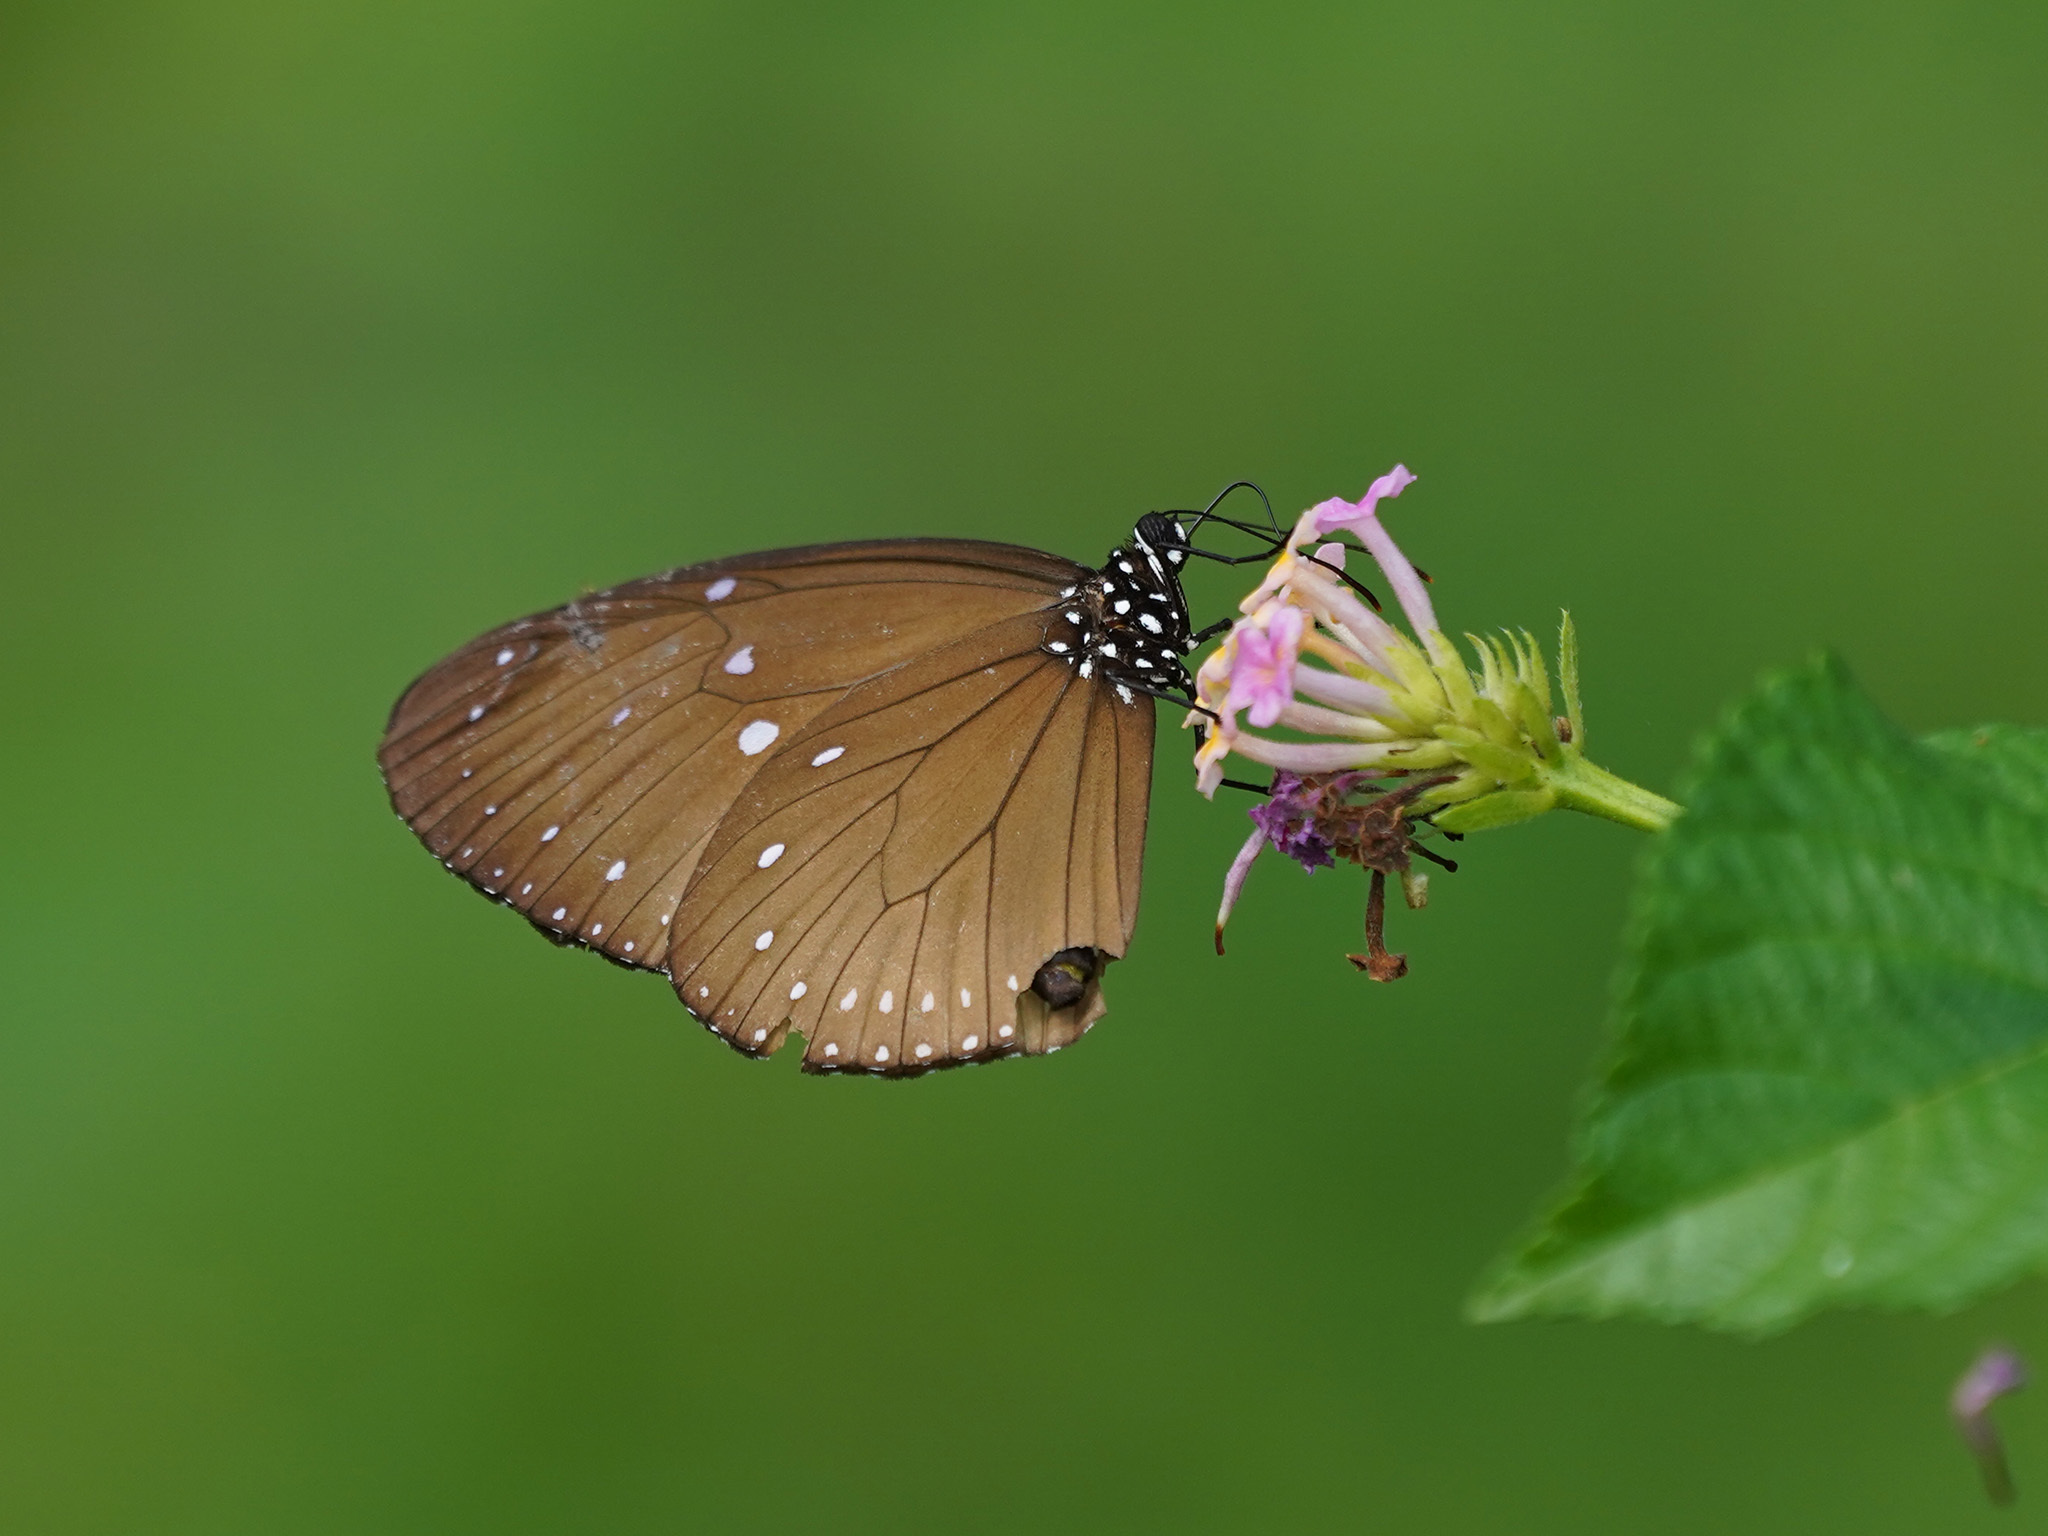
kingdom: Animalia
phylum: Arthropoda
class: Insecta
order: Lepidoptera
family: Nymphalidae
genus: Euploea
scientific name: Euploea tulliolus
